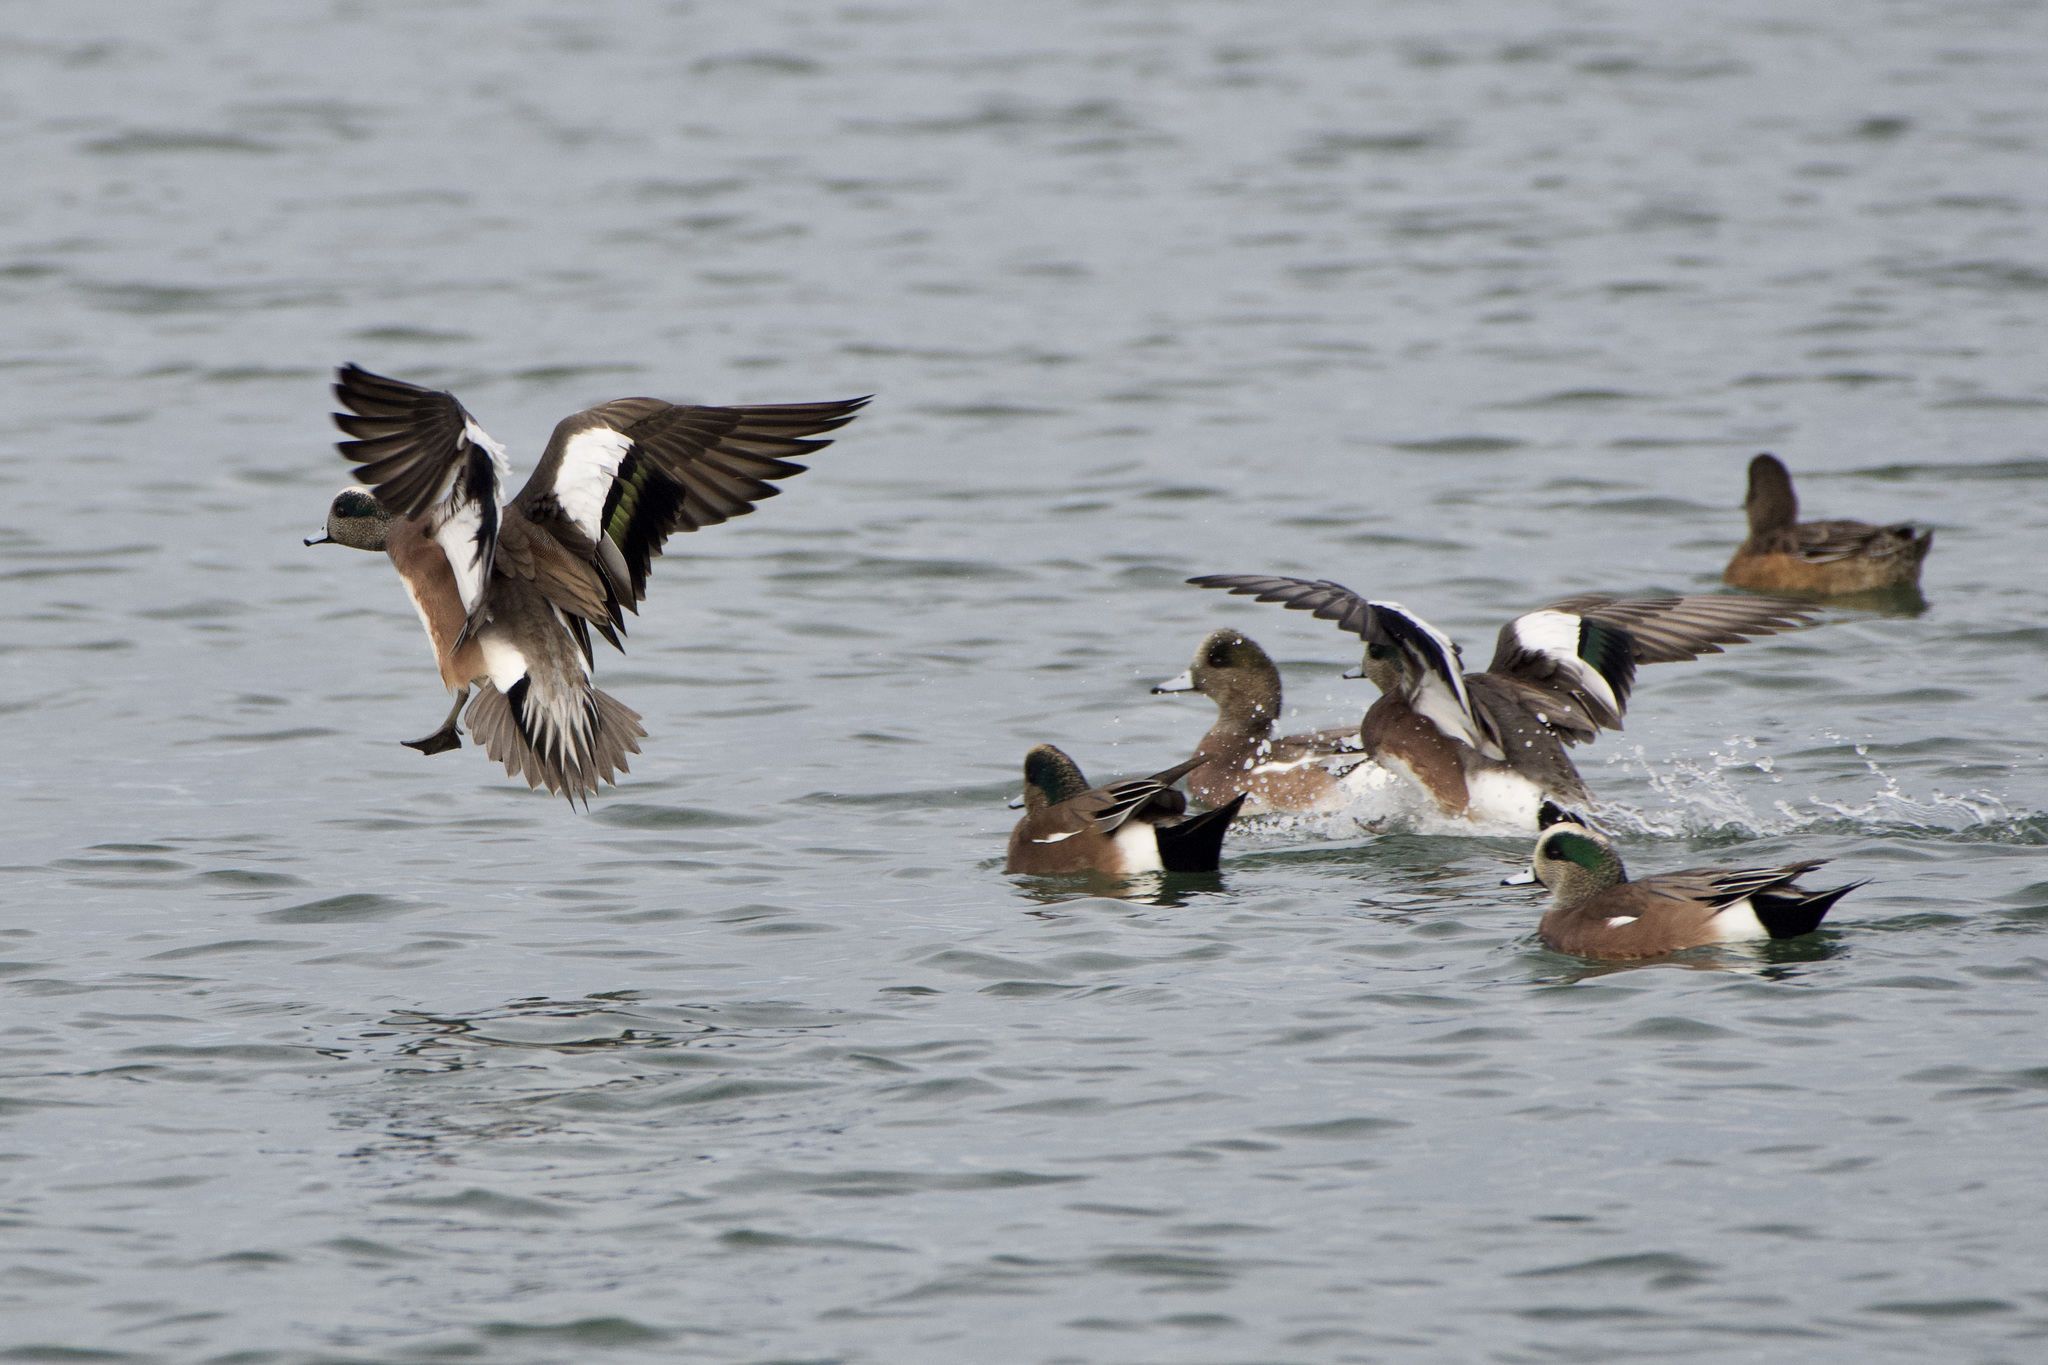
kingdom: Animalia
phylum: Chordata
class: Aves
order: Anseriformes
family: Anatidae
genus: Mareca
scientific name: Mareca americana
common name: American wigeon
